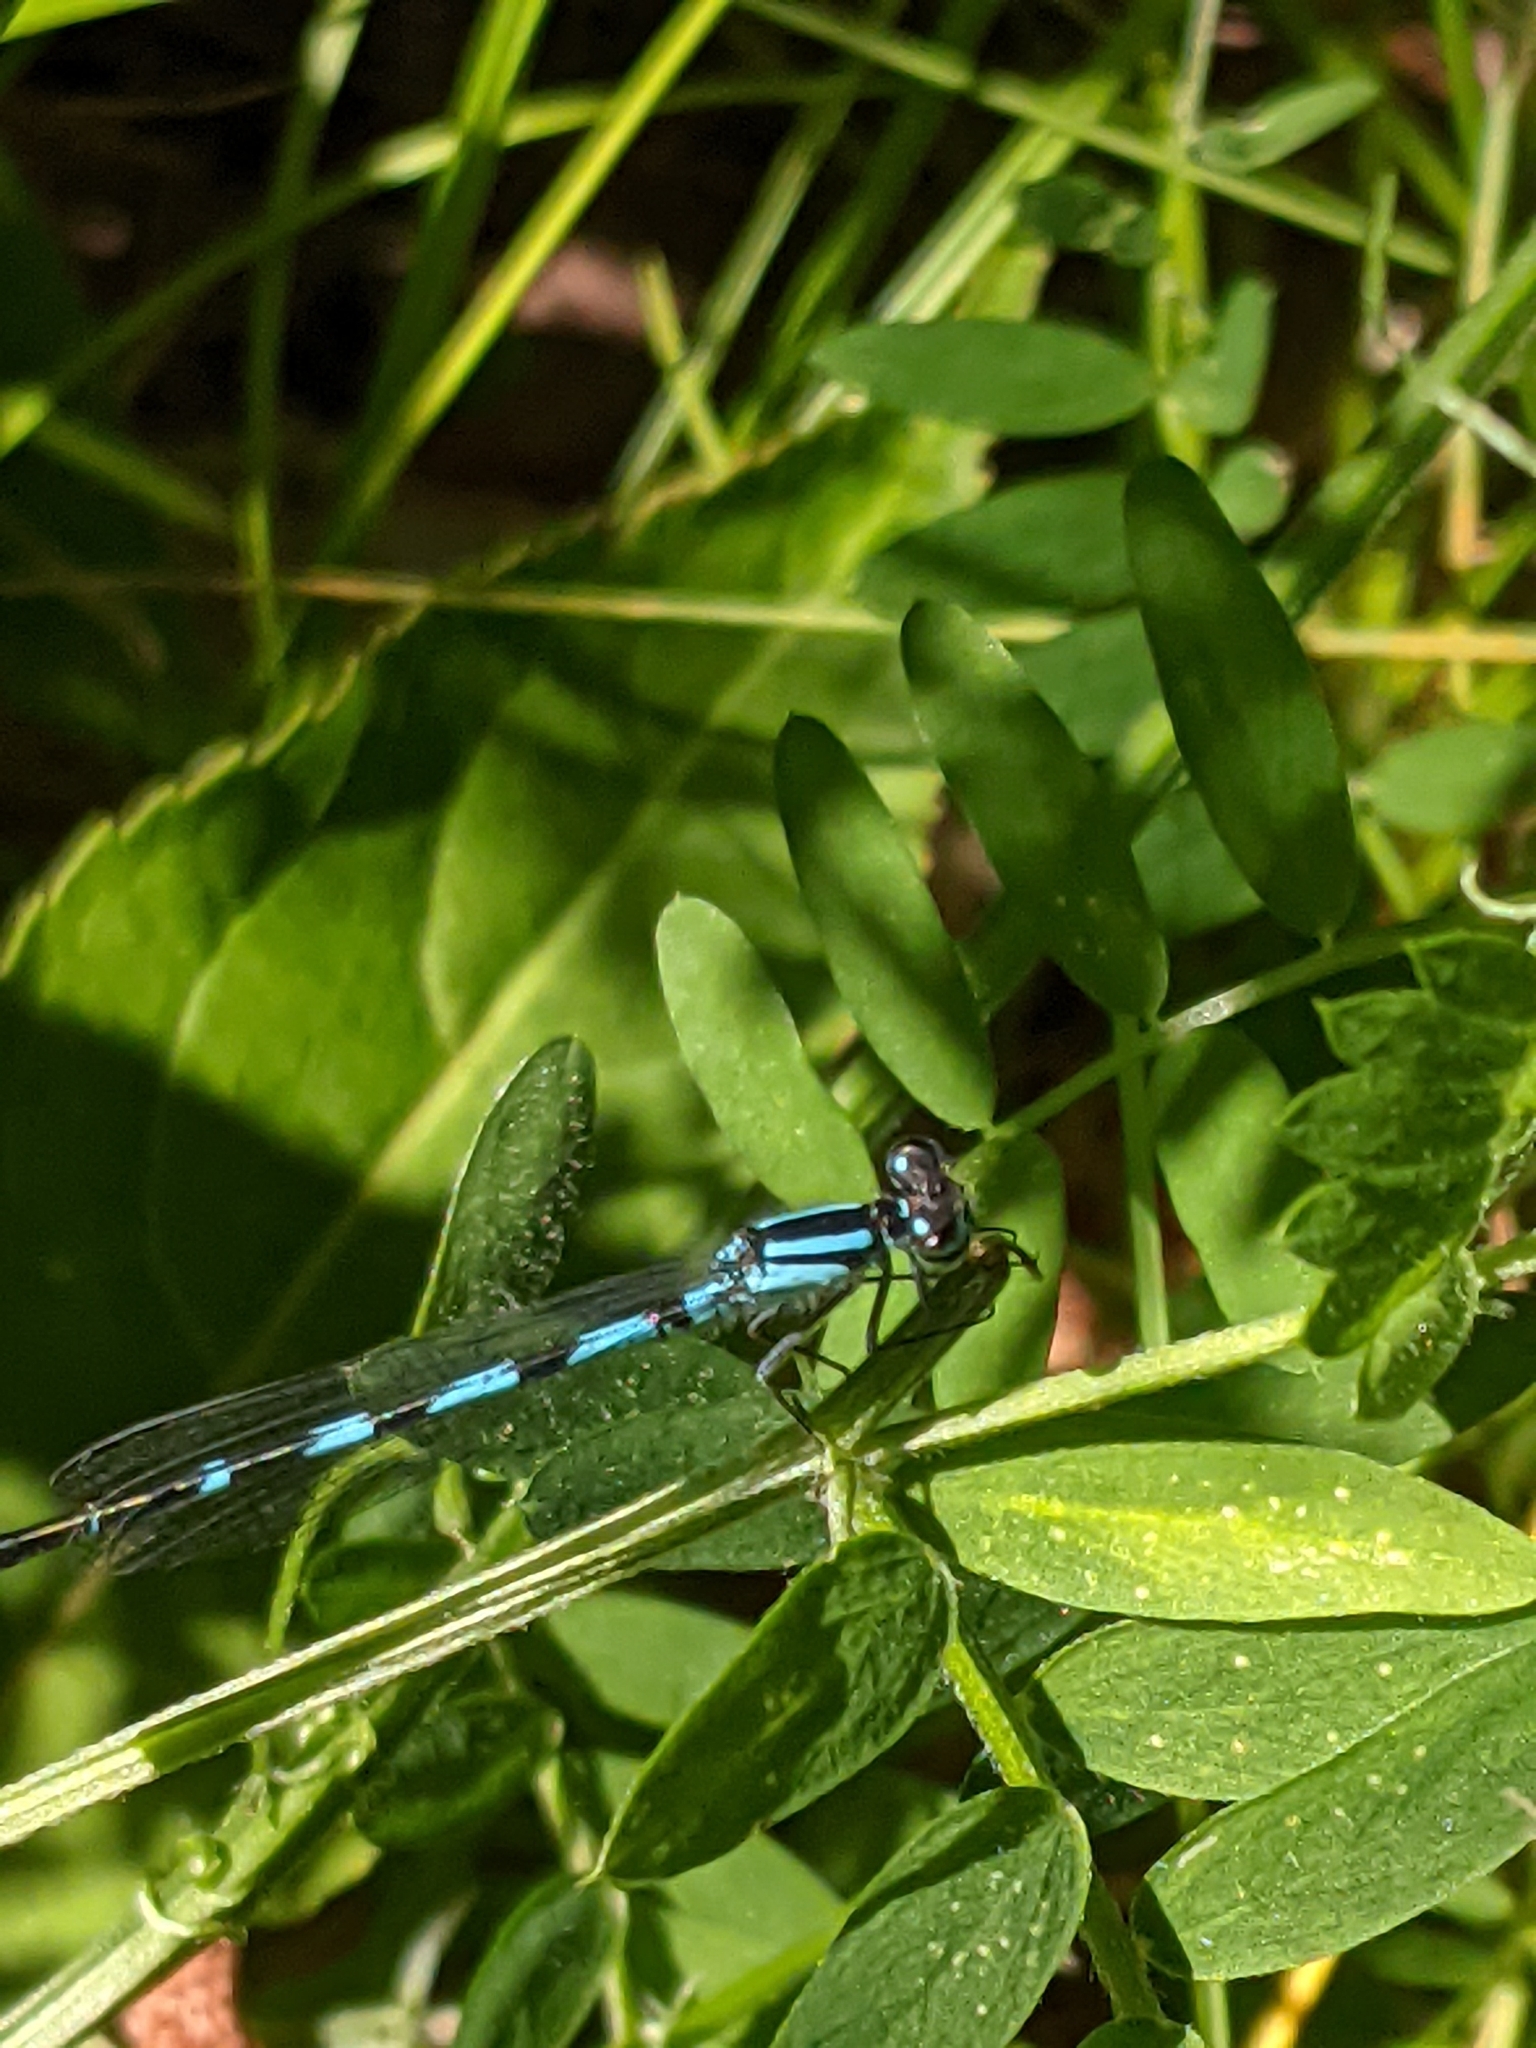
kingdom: Animalia
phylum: Arthropoda
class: Insecta
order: Odonata
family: Coenagrionidae
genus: Enallagma
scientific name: Enallagma carunculatum
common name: Tule bluet
